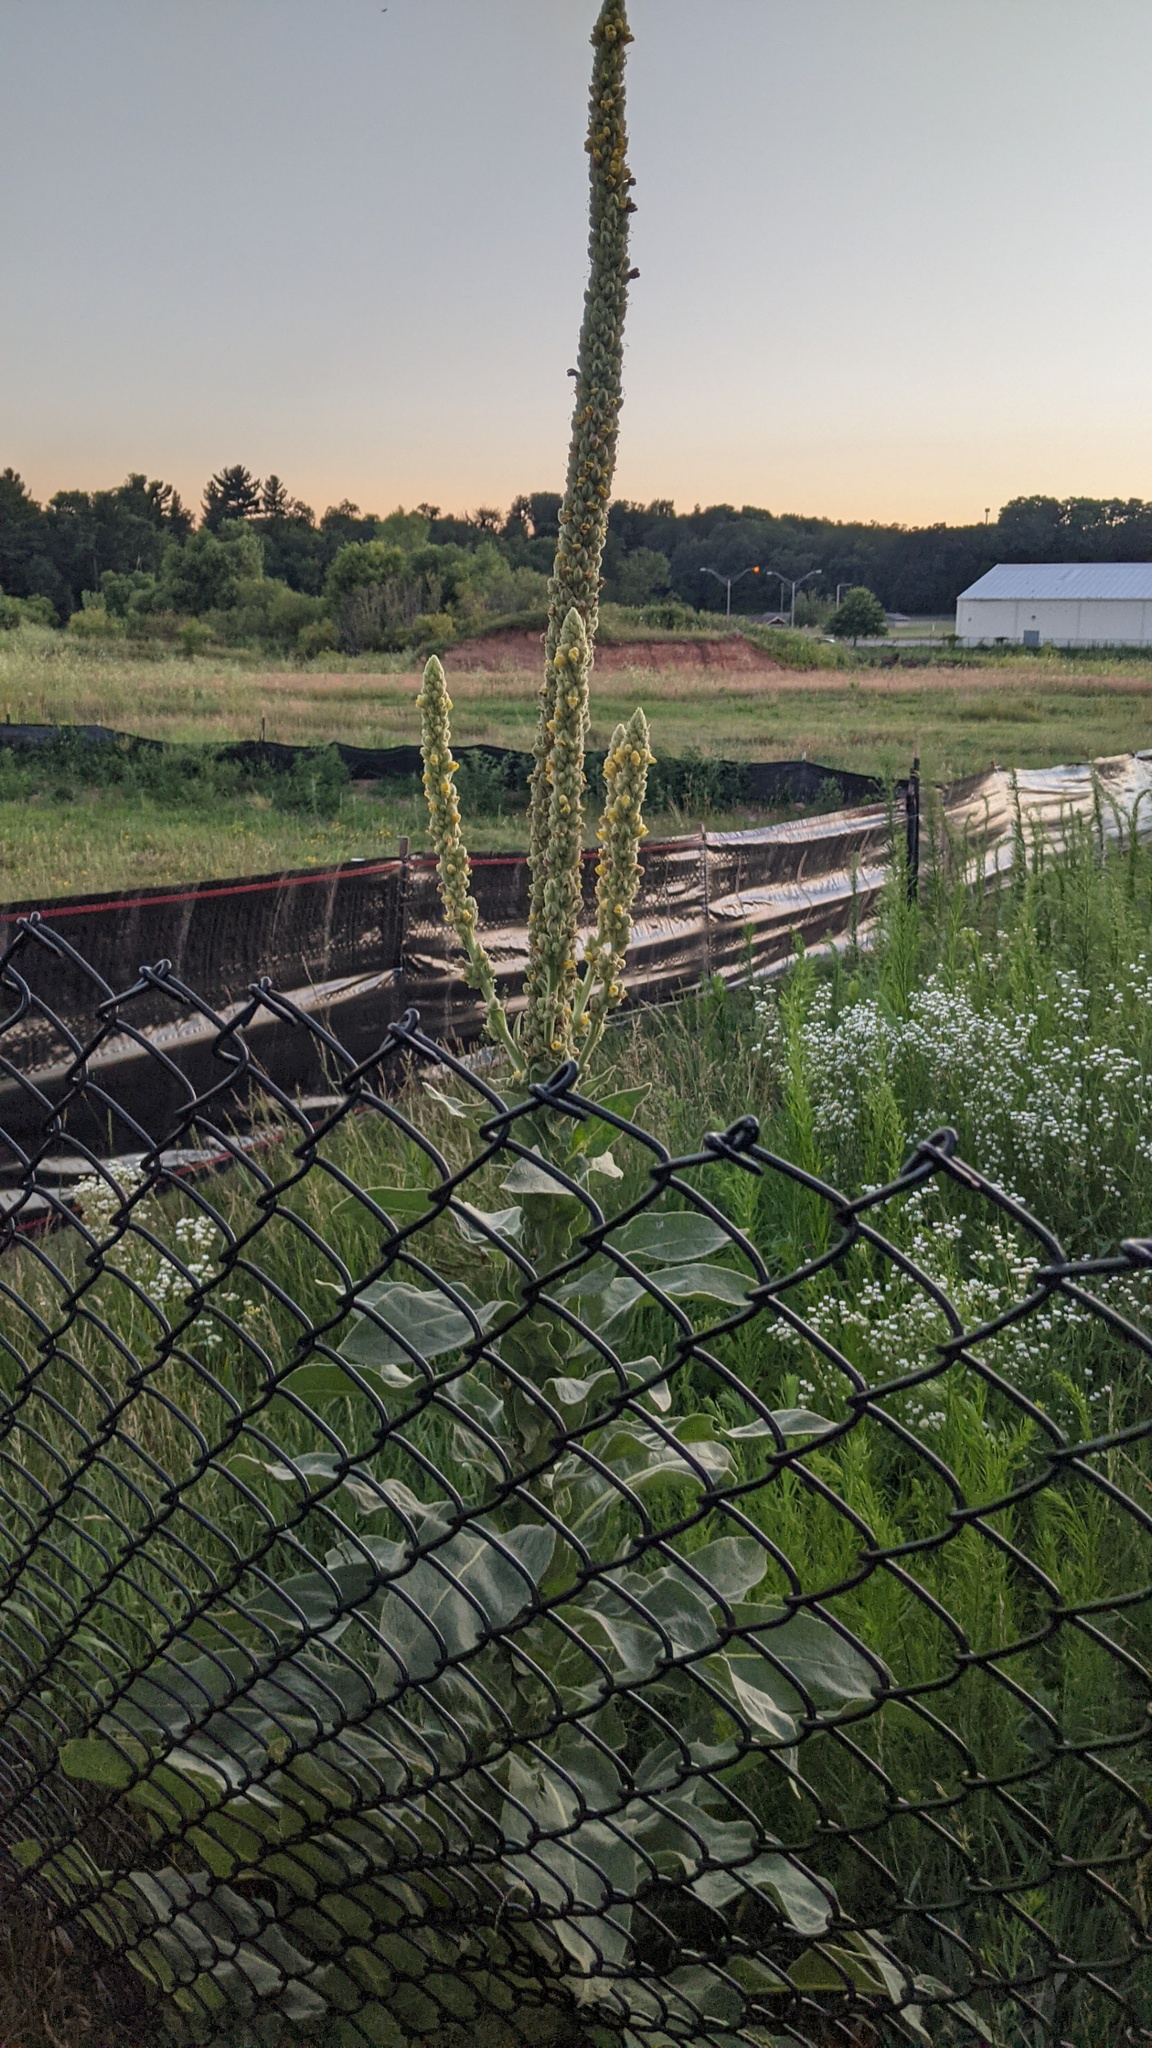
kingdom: Plantae
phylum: Tracheophyta
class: Magnoliopsida
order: Lamiales
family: Scrophulariaceae
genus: Verbascum
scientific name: Verbascum thapsus
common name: Common mullein
